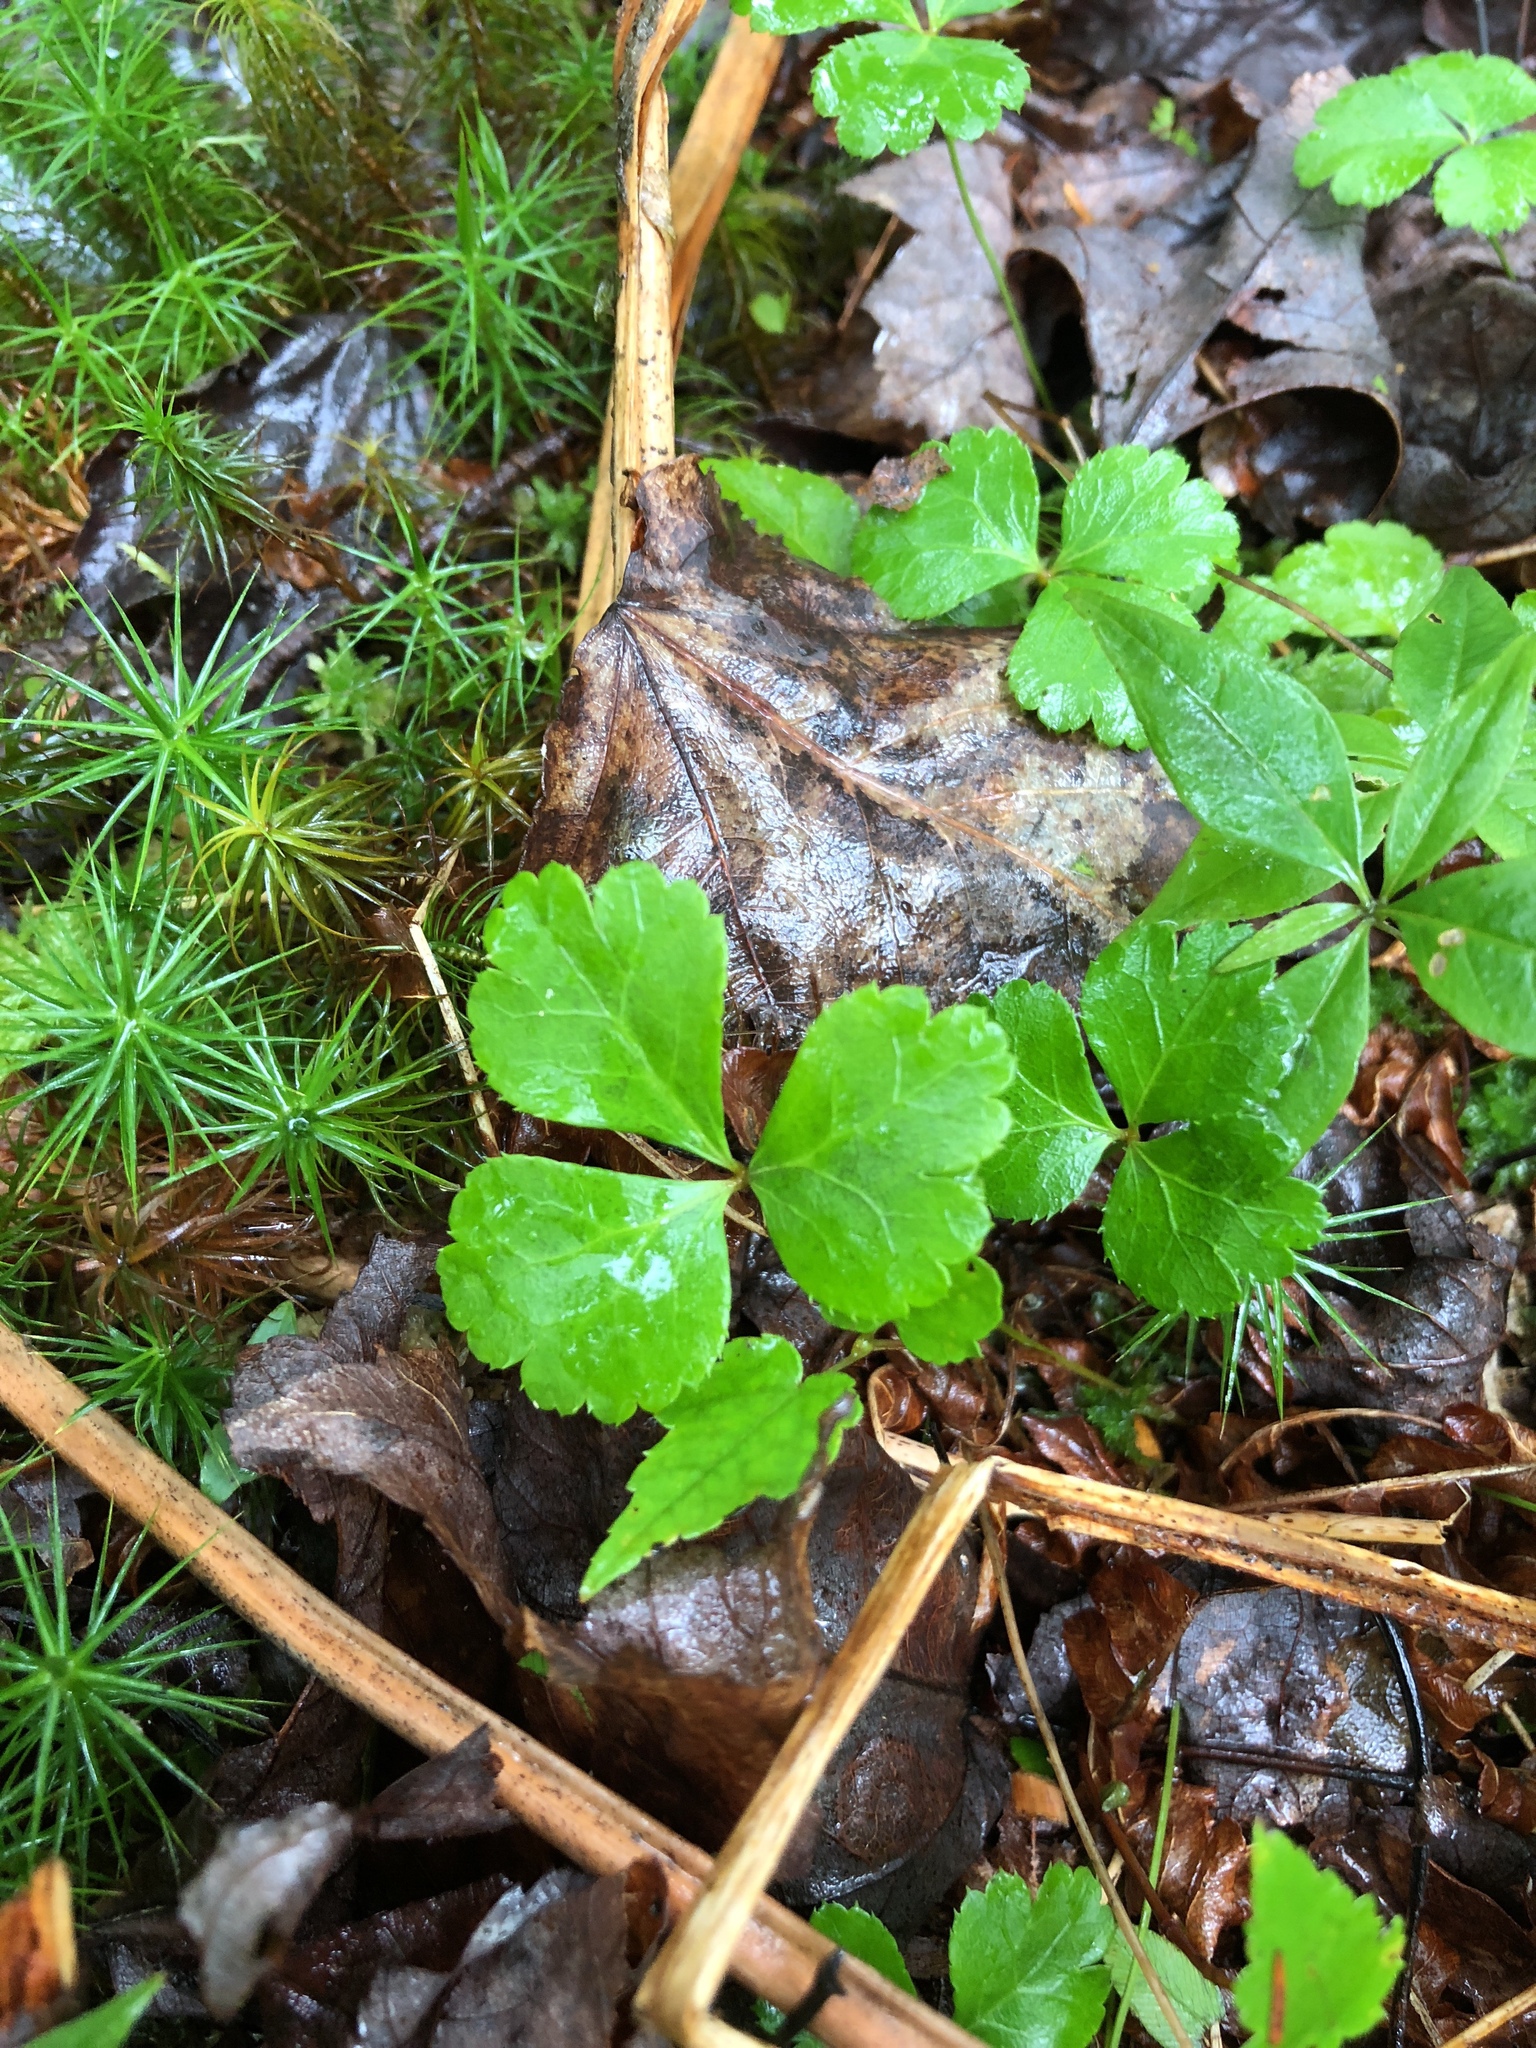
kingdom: Plantae
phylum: Tracheophyta
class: Magnoliopsida
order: Ranunculales
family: Ranunculaceae
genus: Coptis
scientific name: Coptis trifolia
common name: Canker-root
